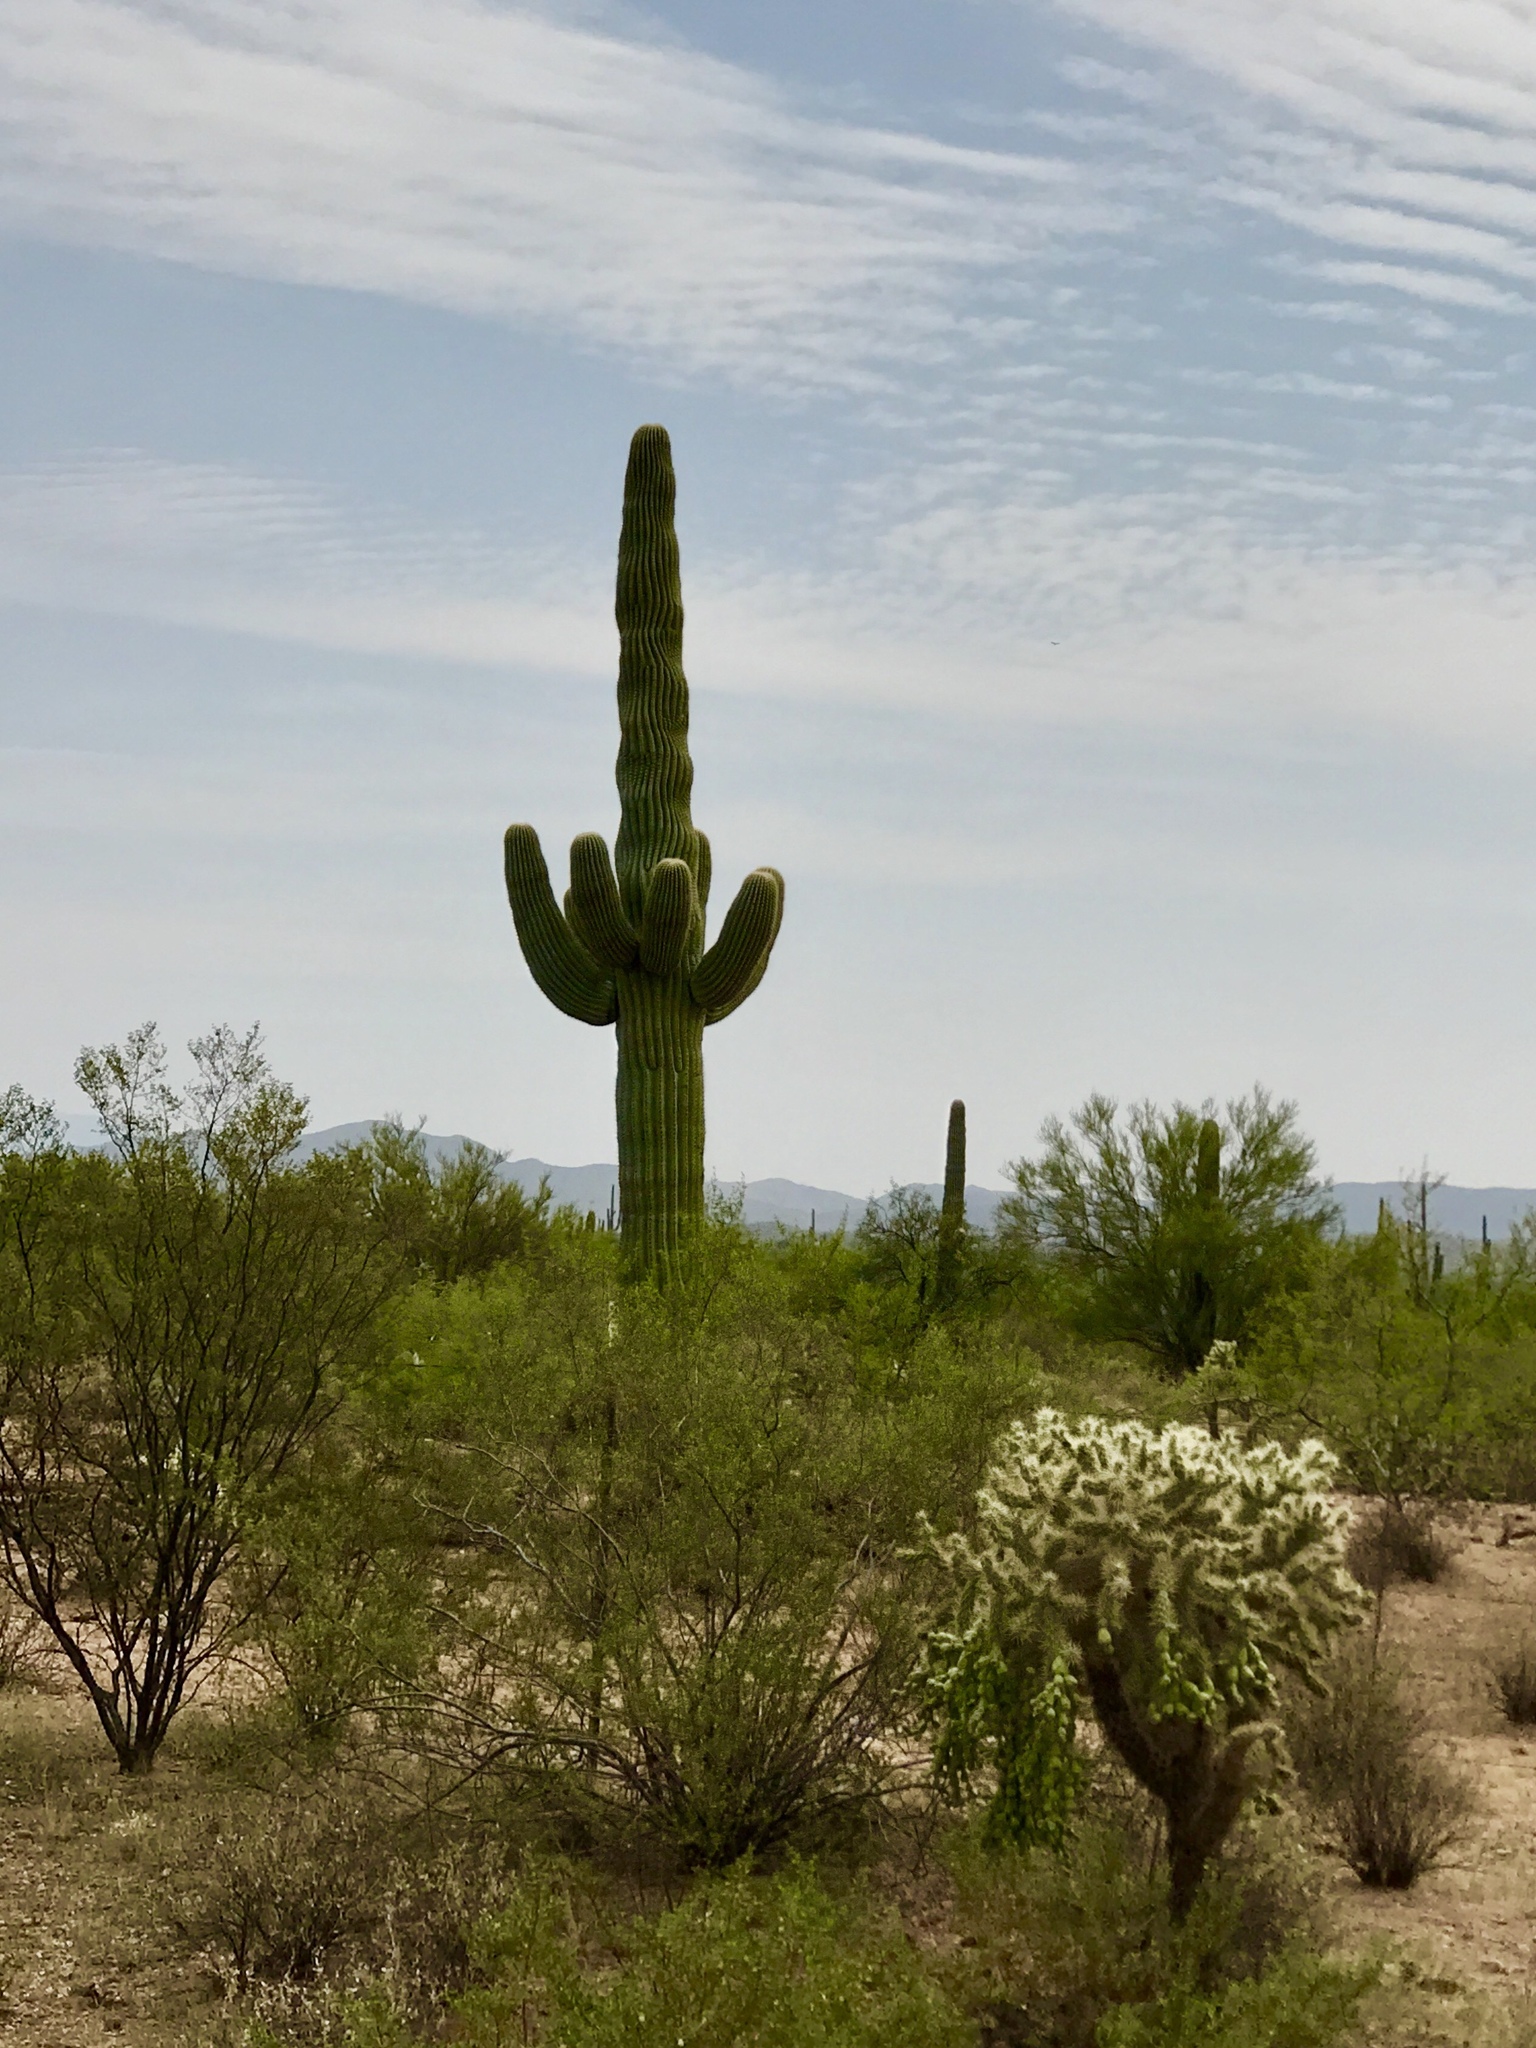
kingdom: Plantae
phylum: Tracheophyta
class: Magnoliopsida
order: Caryophyllales
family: Cactaceae
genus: Carnegiea
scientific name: Carnegiea gigantea
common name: Saguaro
